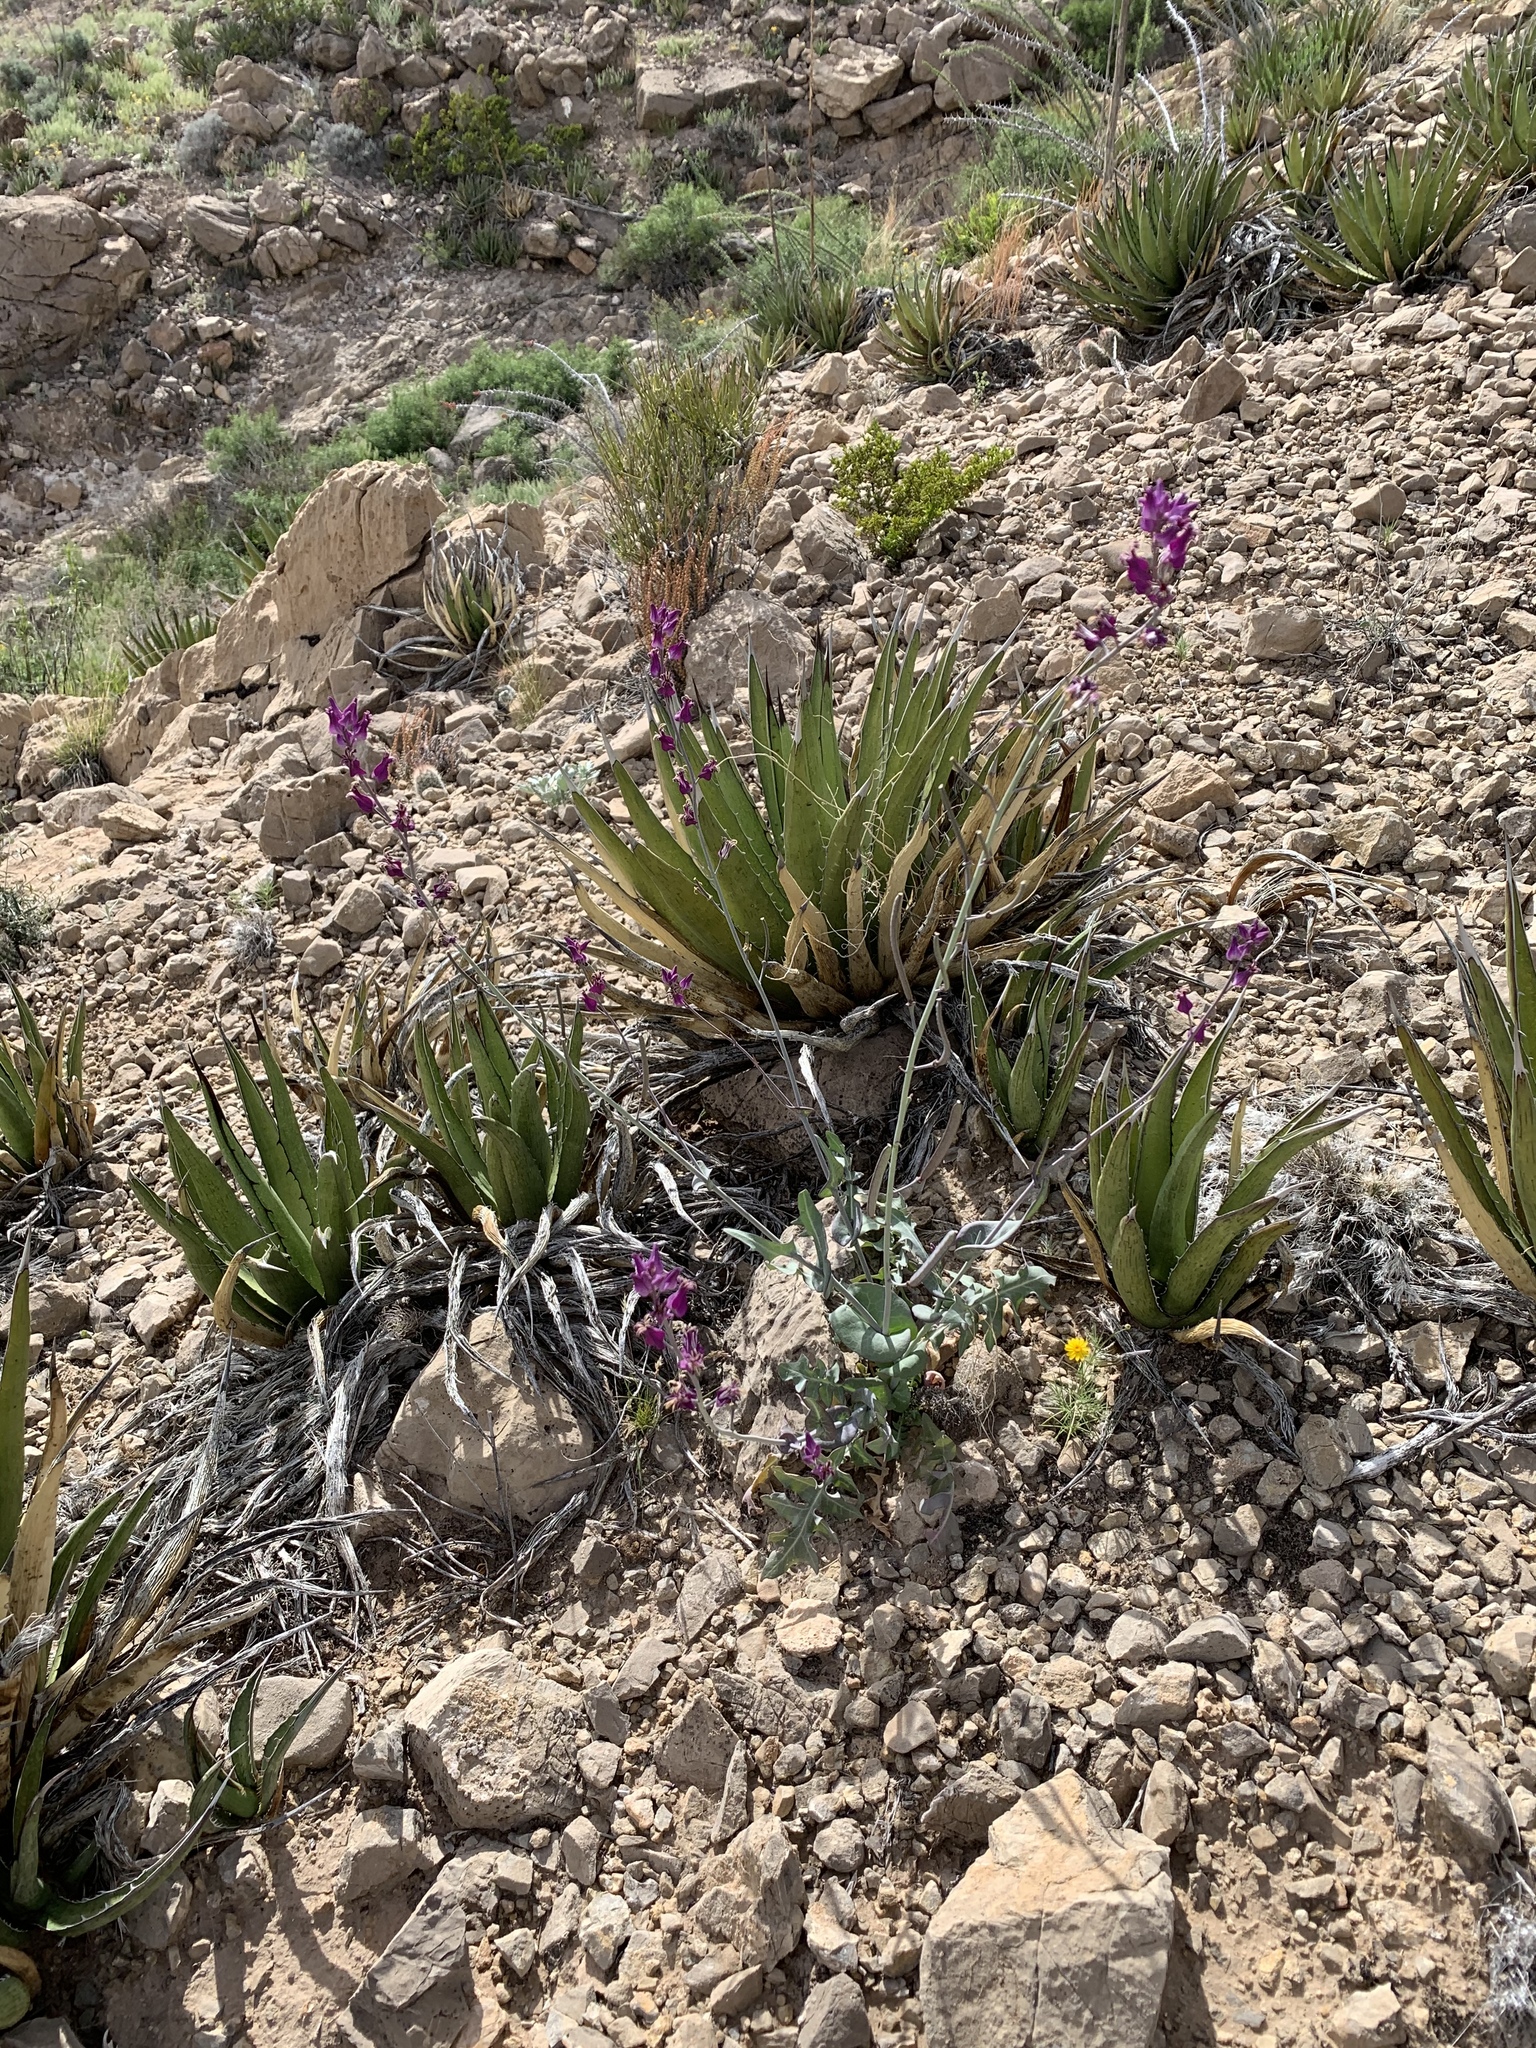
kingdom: Plantae
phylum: Tracheophyta
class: Magnoliopsida
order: Brassicales
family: Brassicaceae
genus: Streptanthus
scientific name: Streptanthus carinatus
